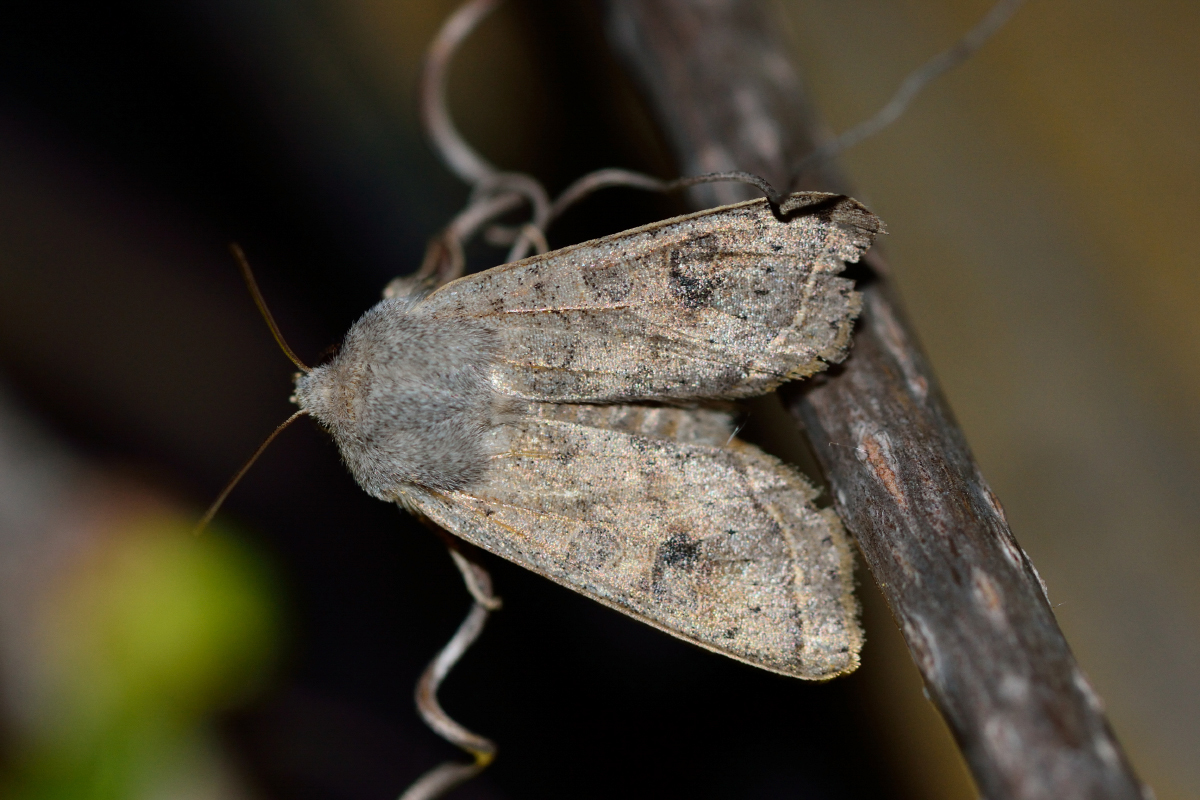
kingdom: Animalia
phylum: Arthropoda
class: Insecta
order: Lepidoptera
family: Noctuidae
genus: Orthosia
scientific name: Orthosia gracilis
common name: Powdered quaker
